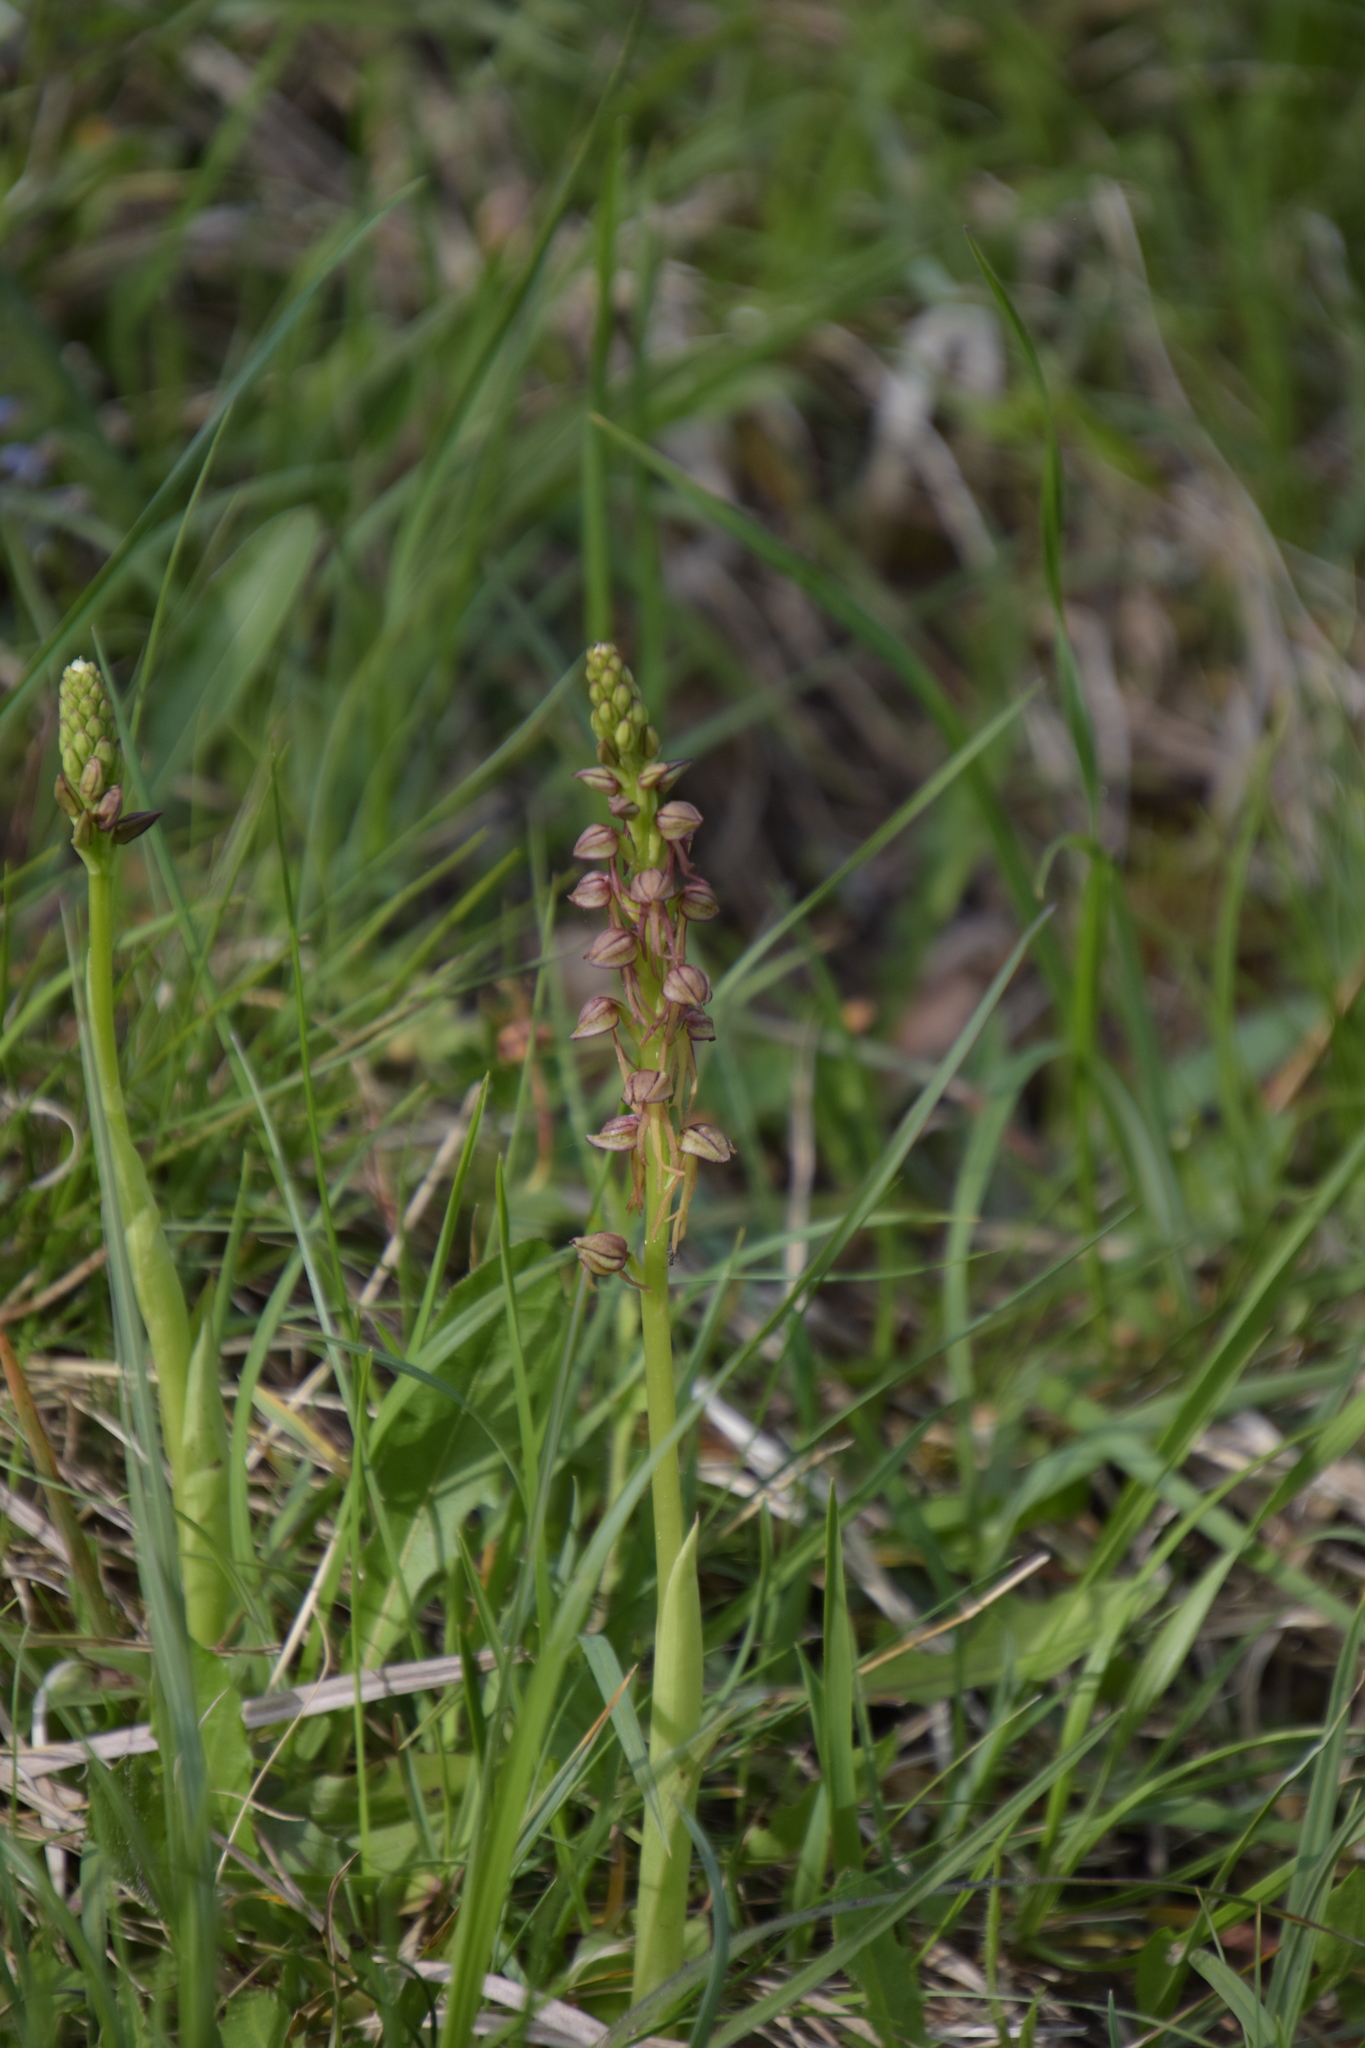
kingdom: Plantae
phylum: Tracheophyta
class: Liliopsida
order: Asparagales
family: Orchidaceae
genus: Orchis
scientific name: Orchis anthropophora
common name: Man orchid
